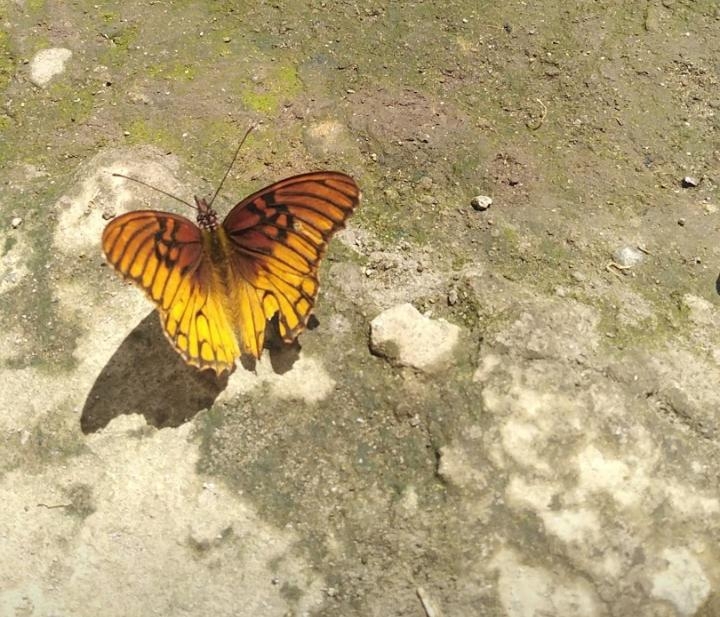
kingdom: Animalia
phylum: Arthropoda
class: Insecta
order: Lepidoptera
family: Nymphalidae
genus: Dione
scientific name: Dione moneta
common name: Mexican silverspot
